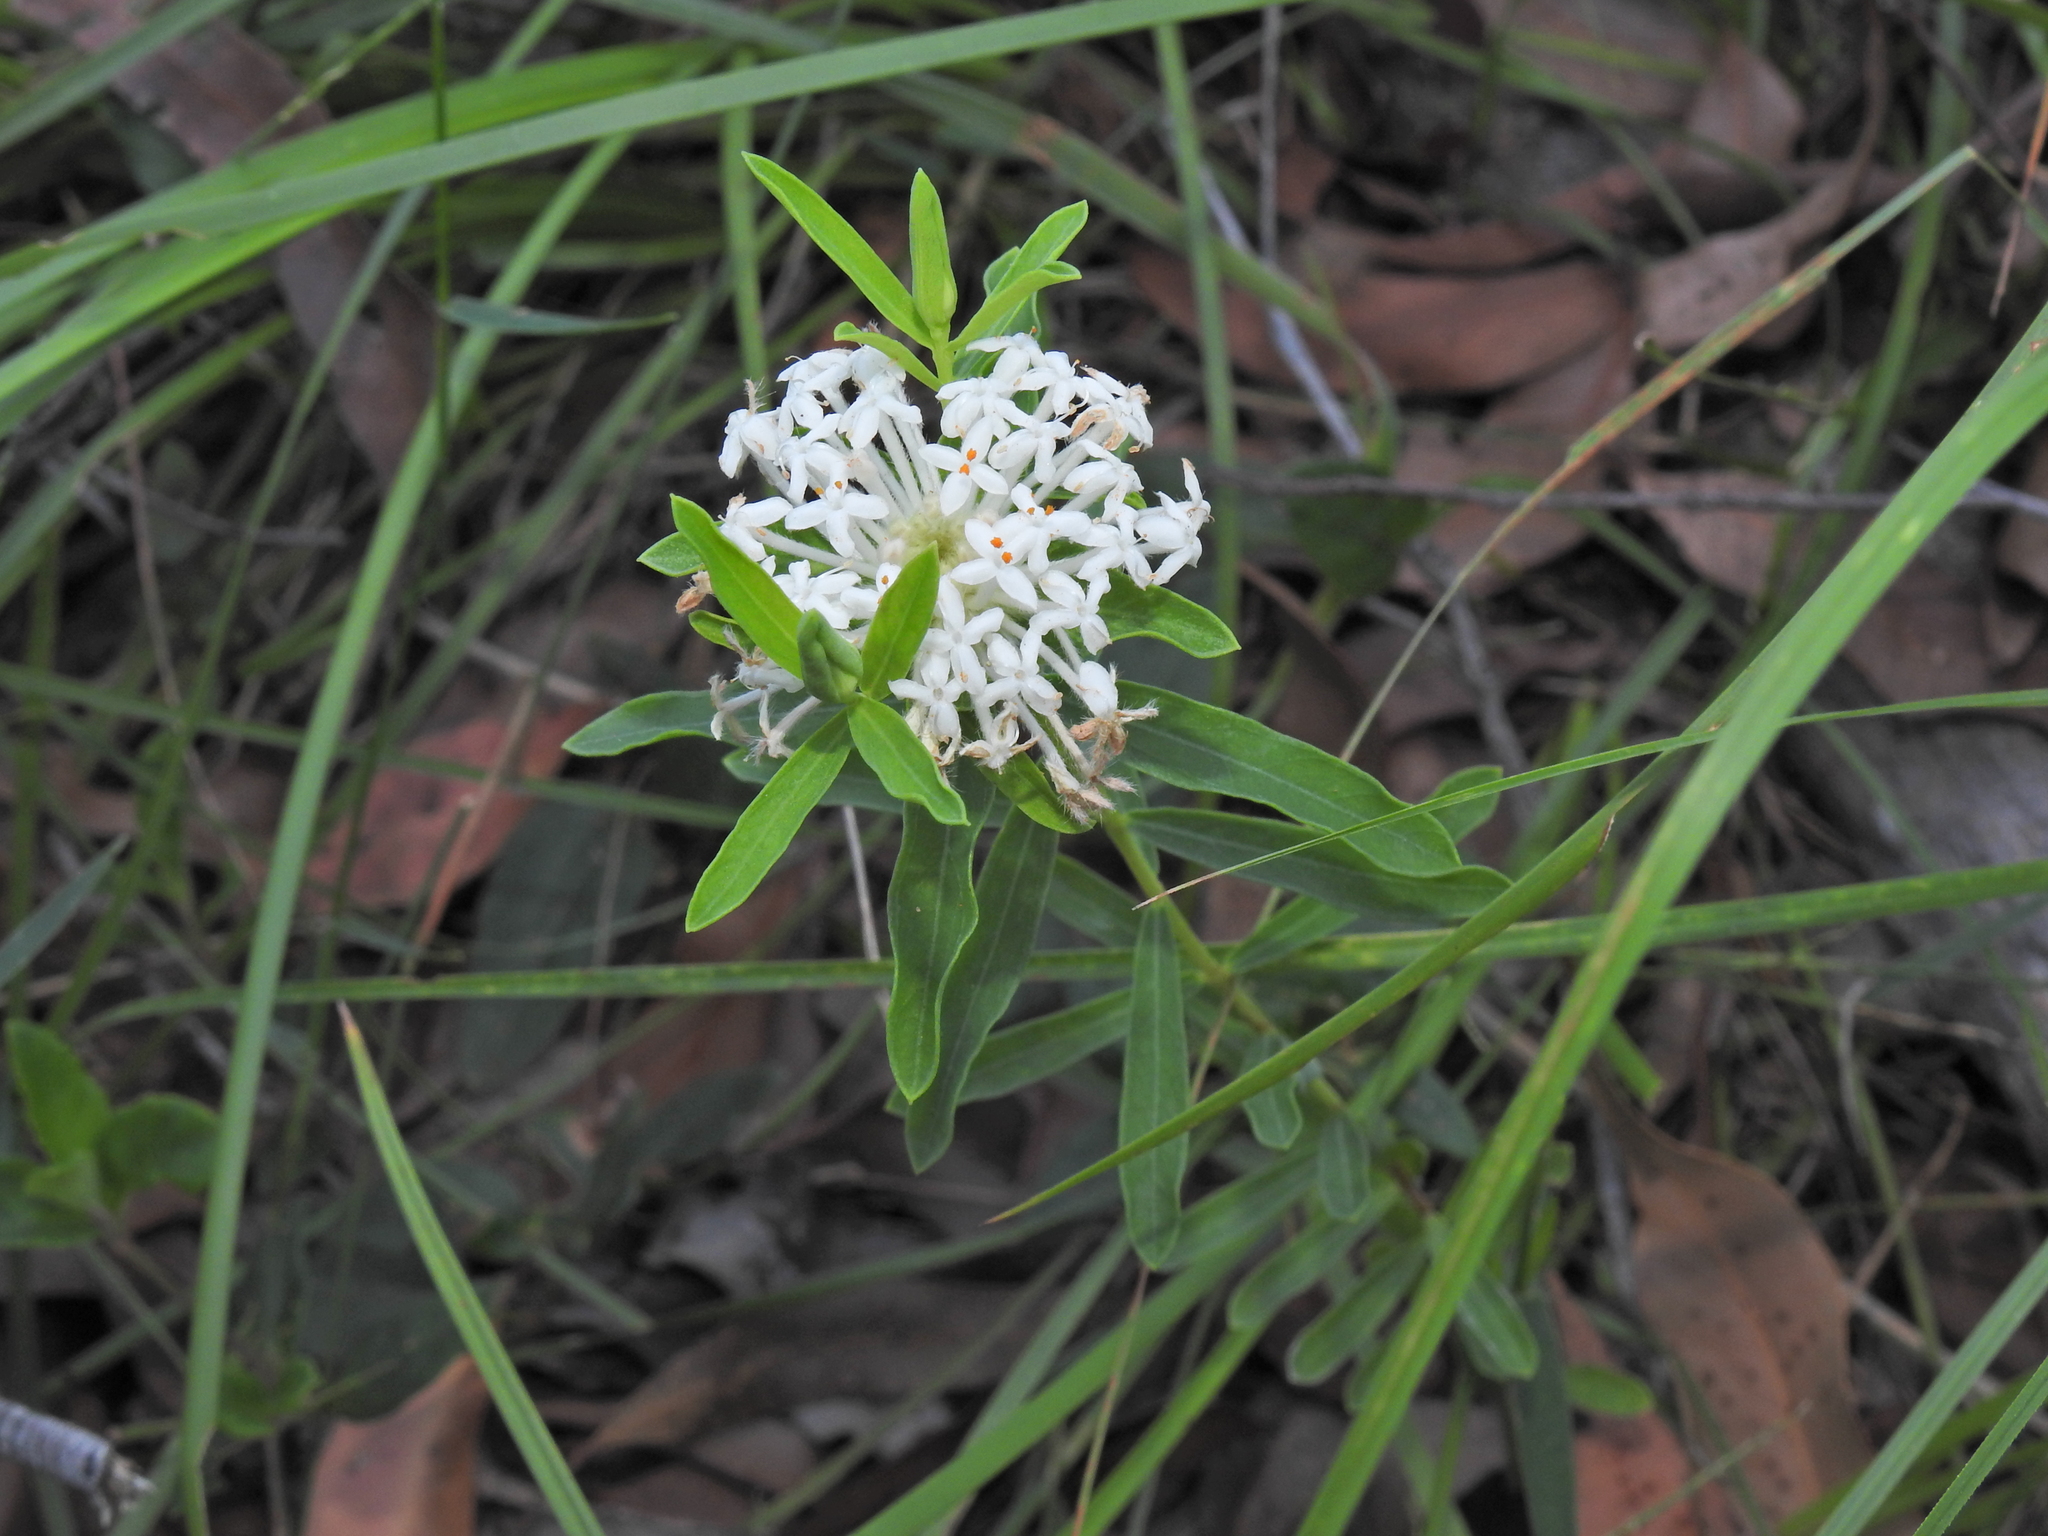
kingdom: Plantae
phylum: Tracheophyta
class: Magnoliopsida
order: Malvales
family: Thymelaeaceae
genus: Pimelea
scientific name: Pimelea linifolia
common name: Queen-of-the-bush
